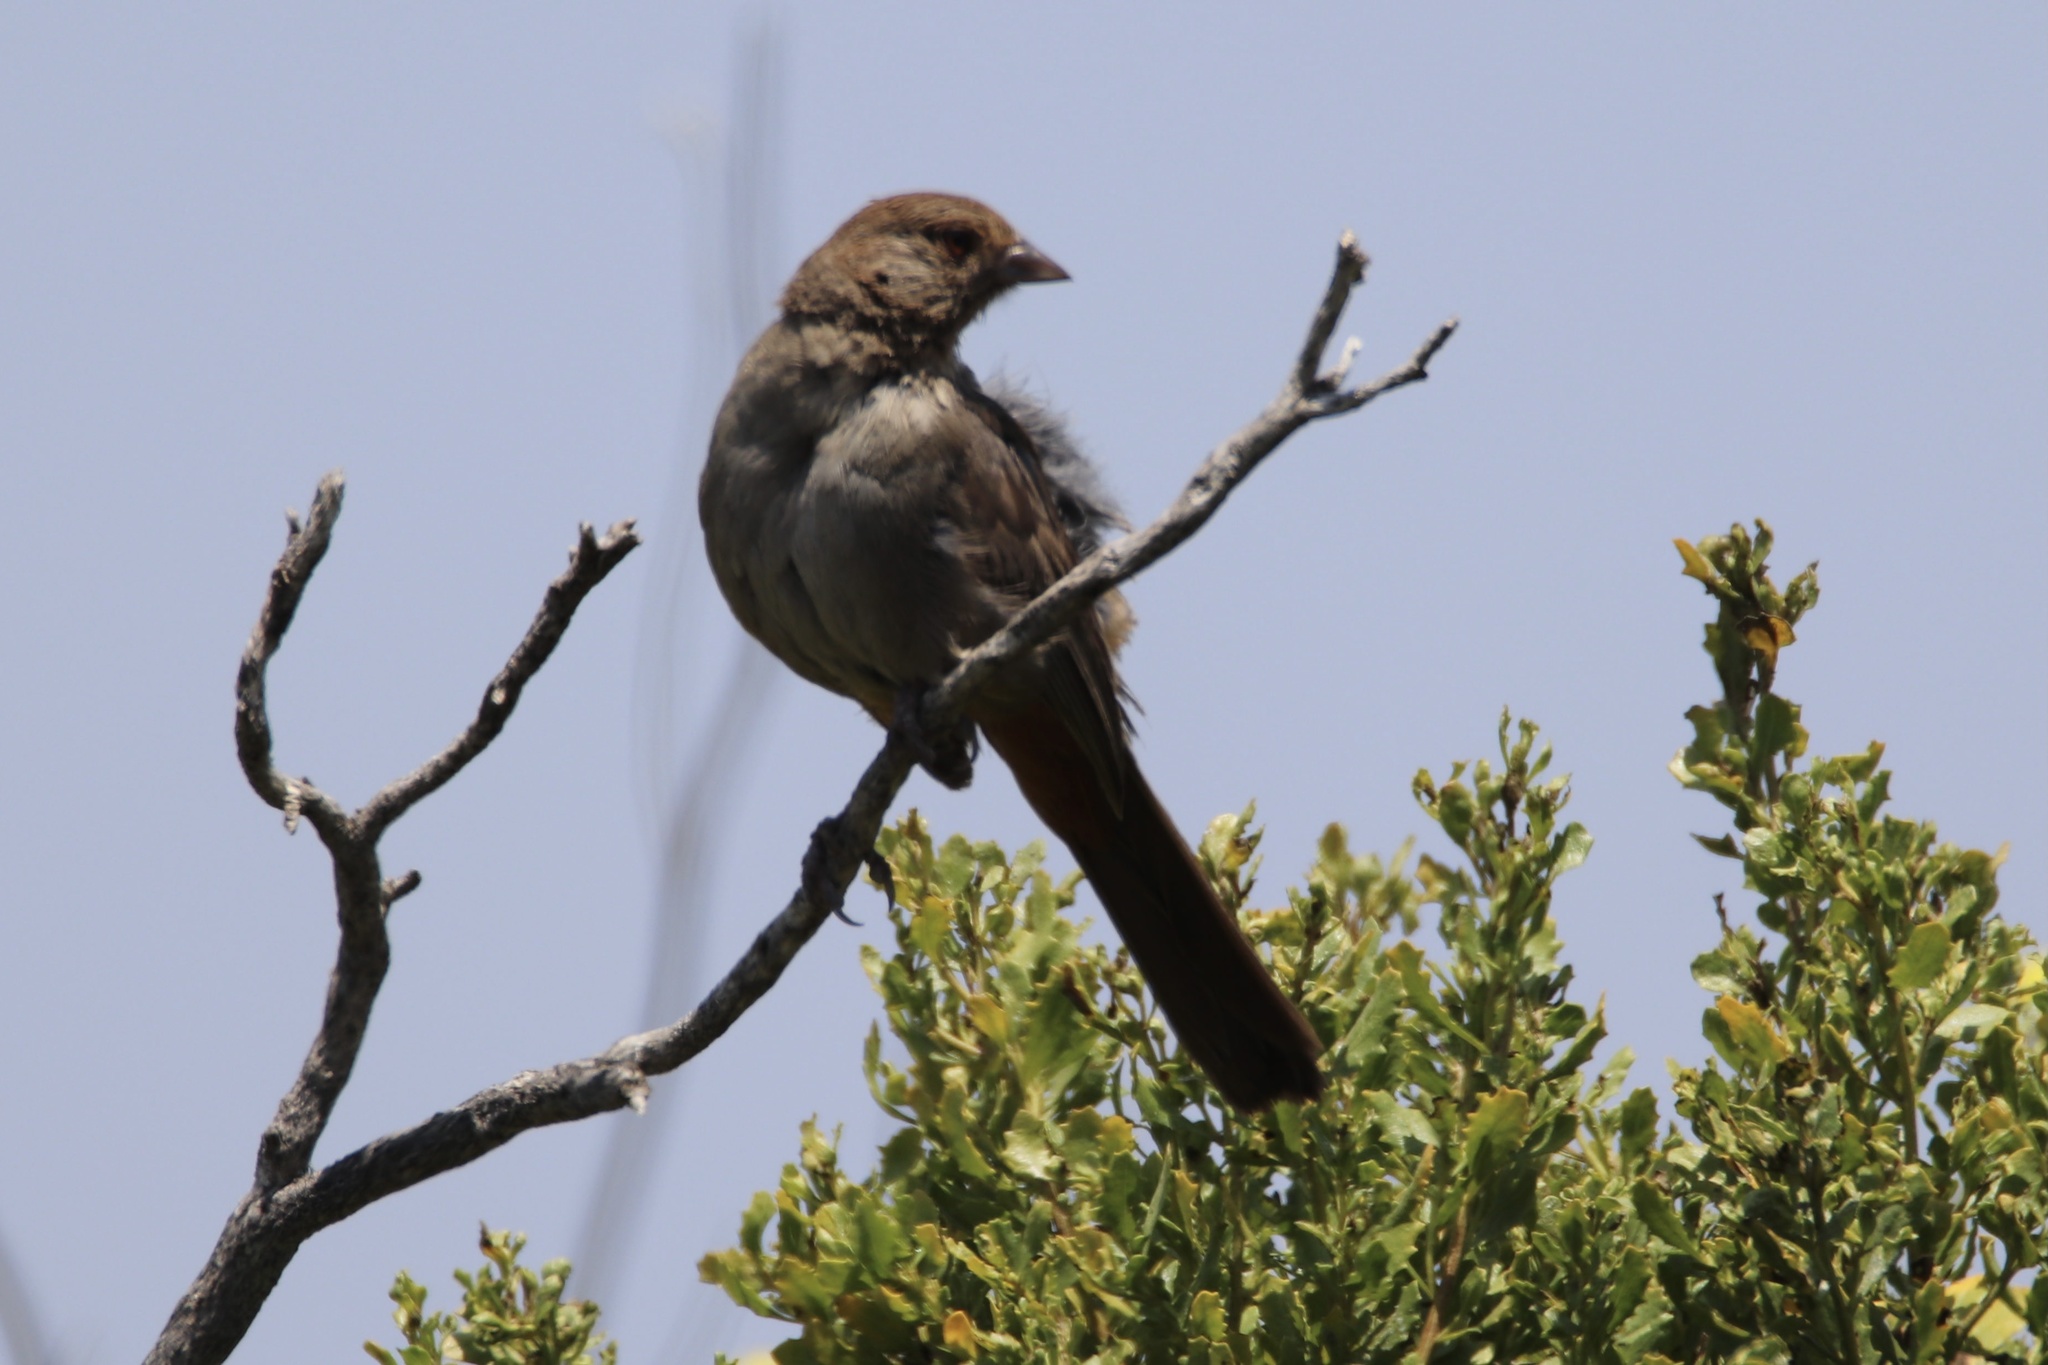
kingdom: Animalia
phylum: Chordata
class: Aves
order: Passeriformes
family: Passerellidae
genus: Melozone
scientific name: Melozone crissalis
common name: California towhee
